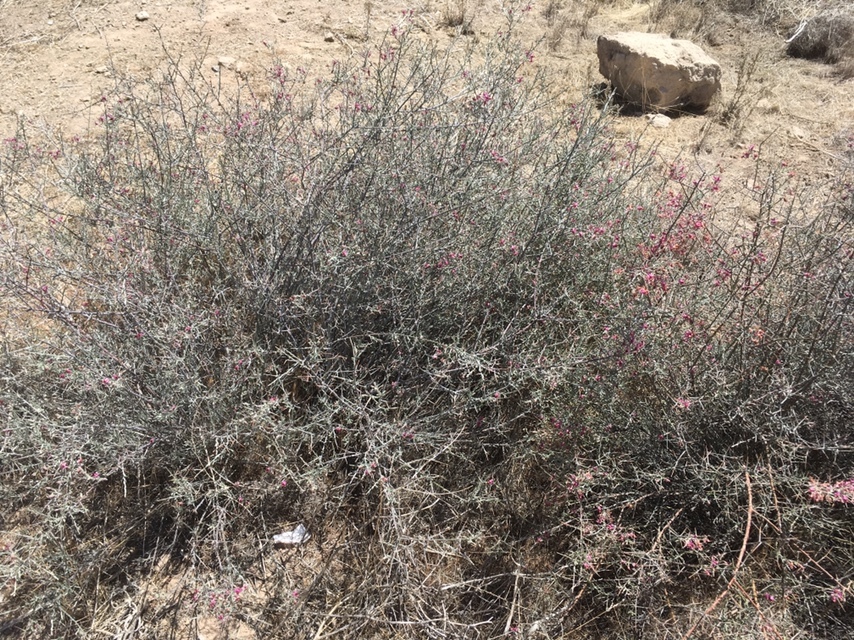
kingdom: Plantae
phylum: Tracheophyta
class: Magnoliopsida
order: Zygophyllales
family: Krameriaceae
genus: Krameria
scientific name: Krameria bicolor
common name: White ratany
